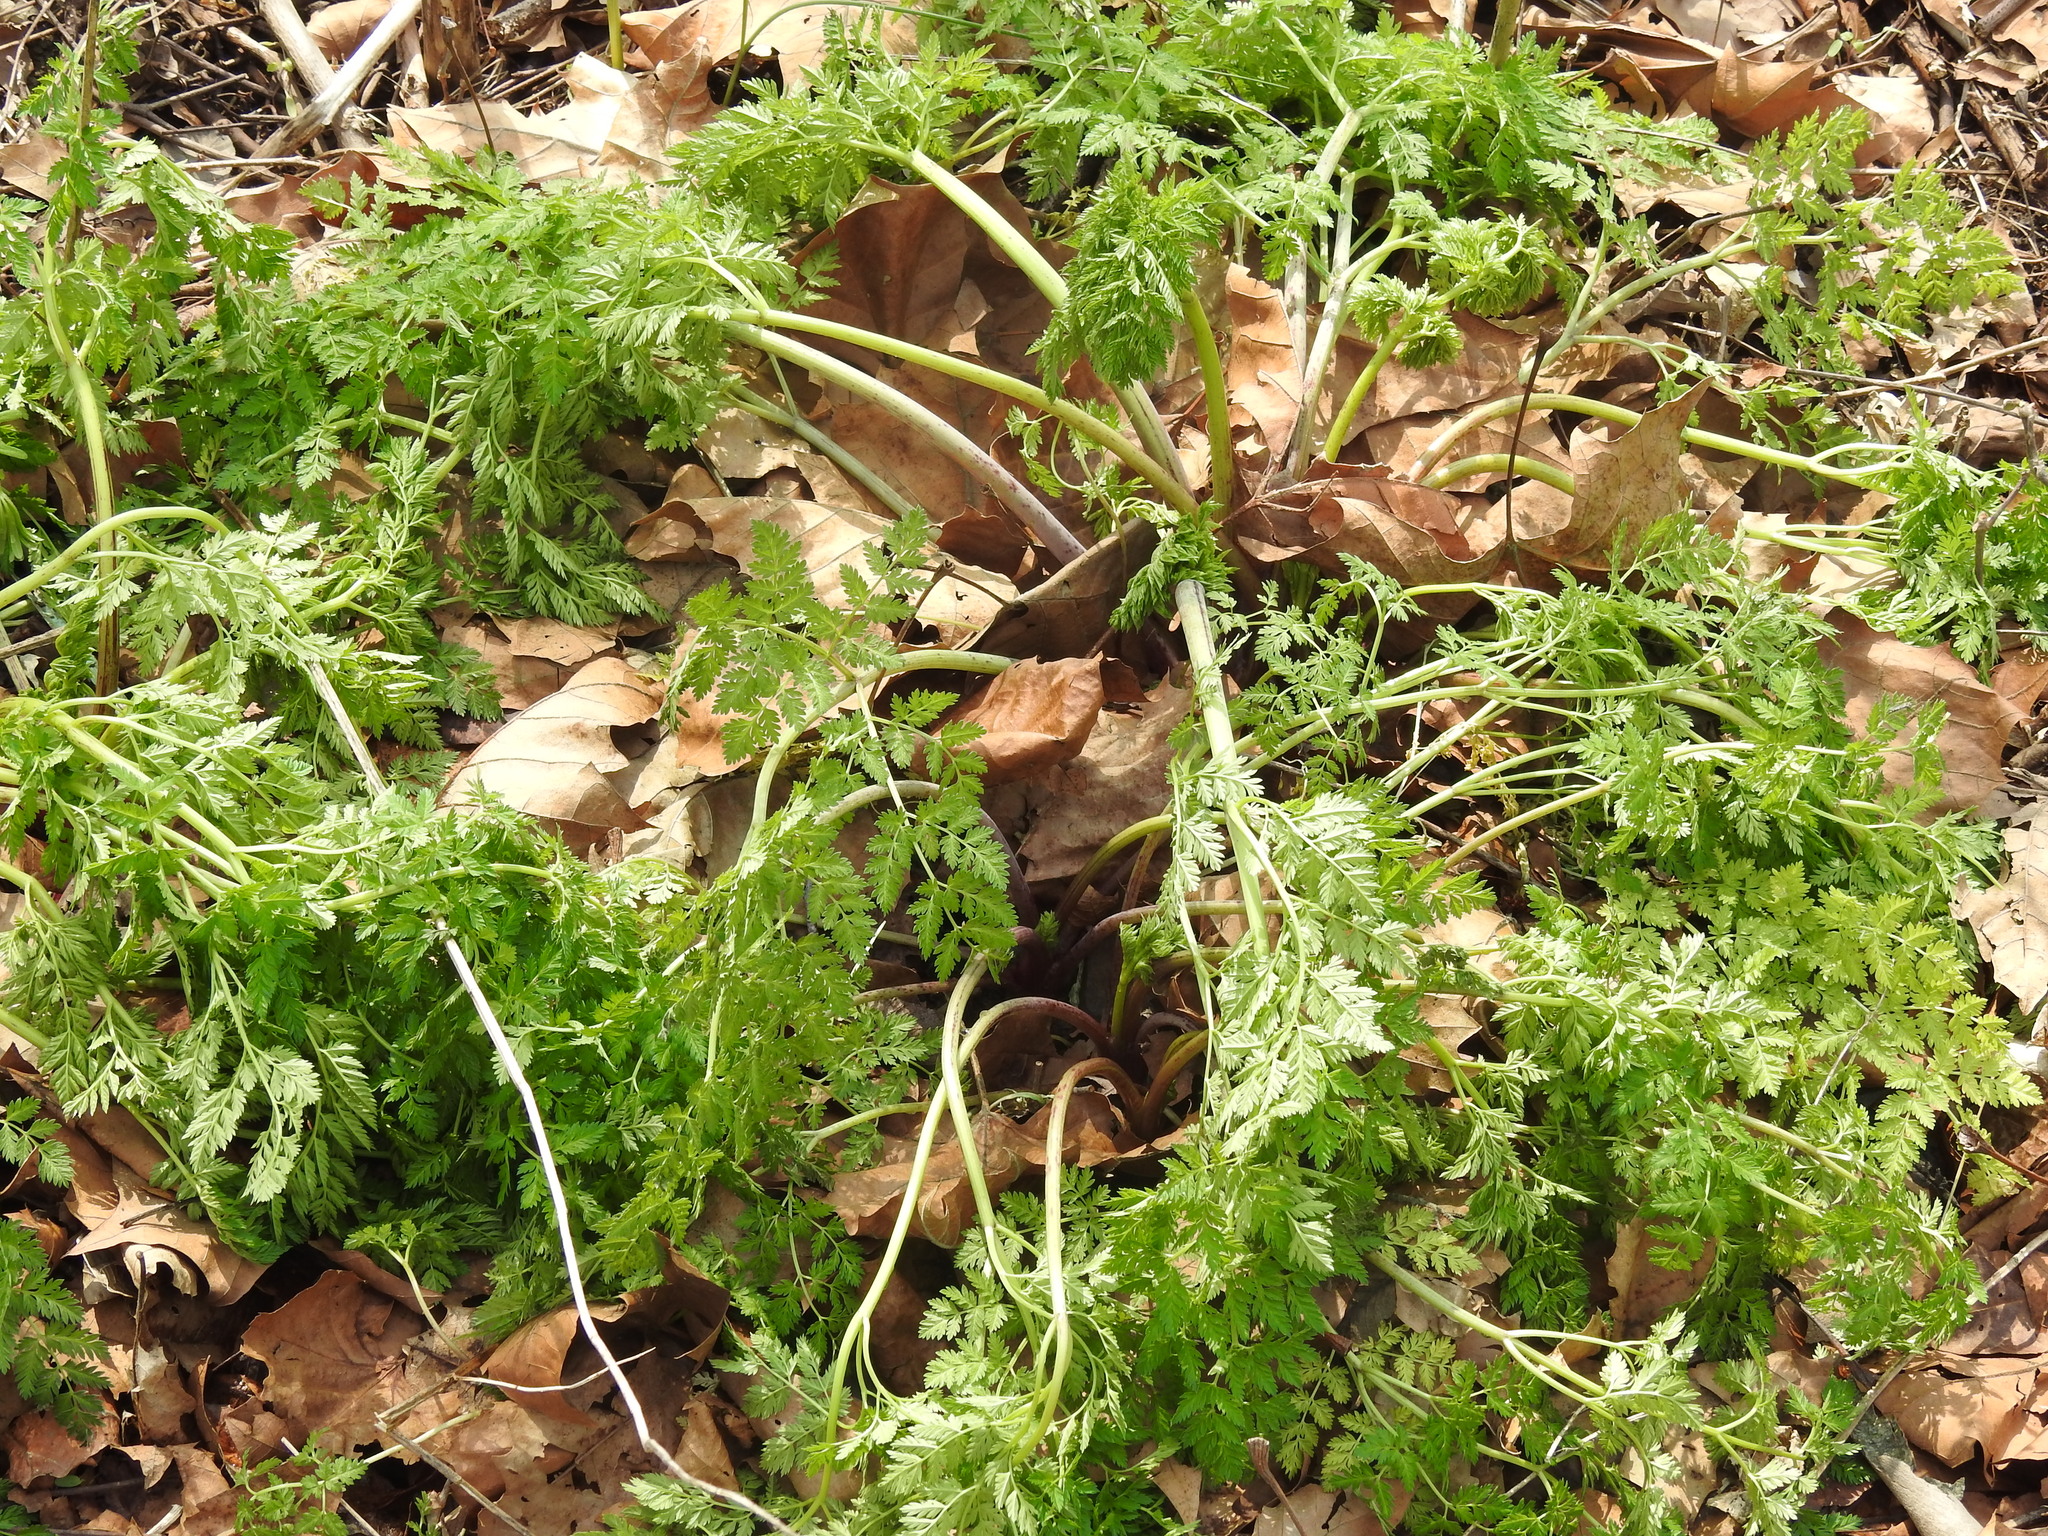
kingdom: Plantae
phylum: Tracheophyta
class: Magnoliopsida
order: Apiales
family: Apiaceae
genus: Conium
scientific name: Conium maculatum
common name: Hemlock
